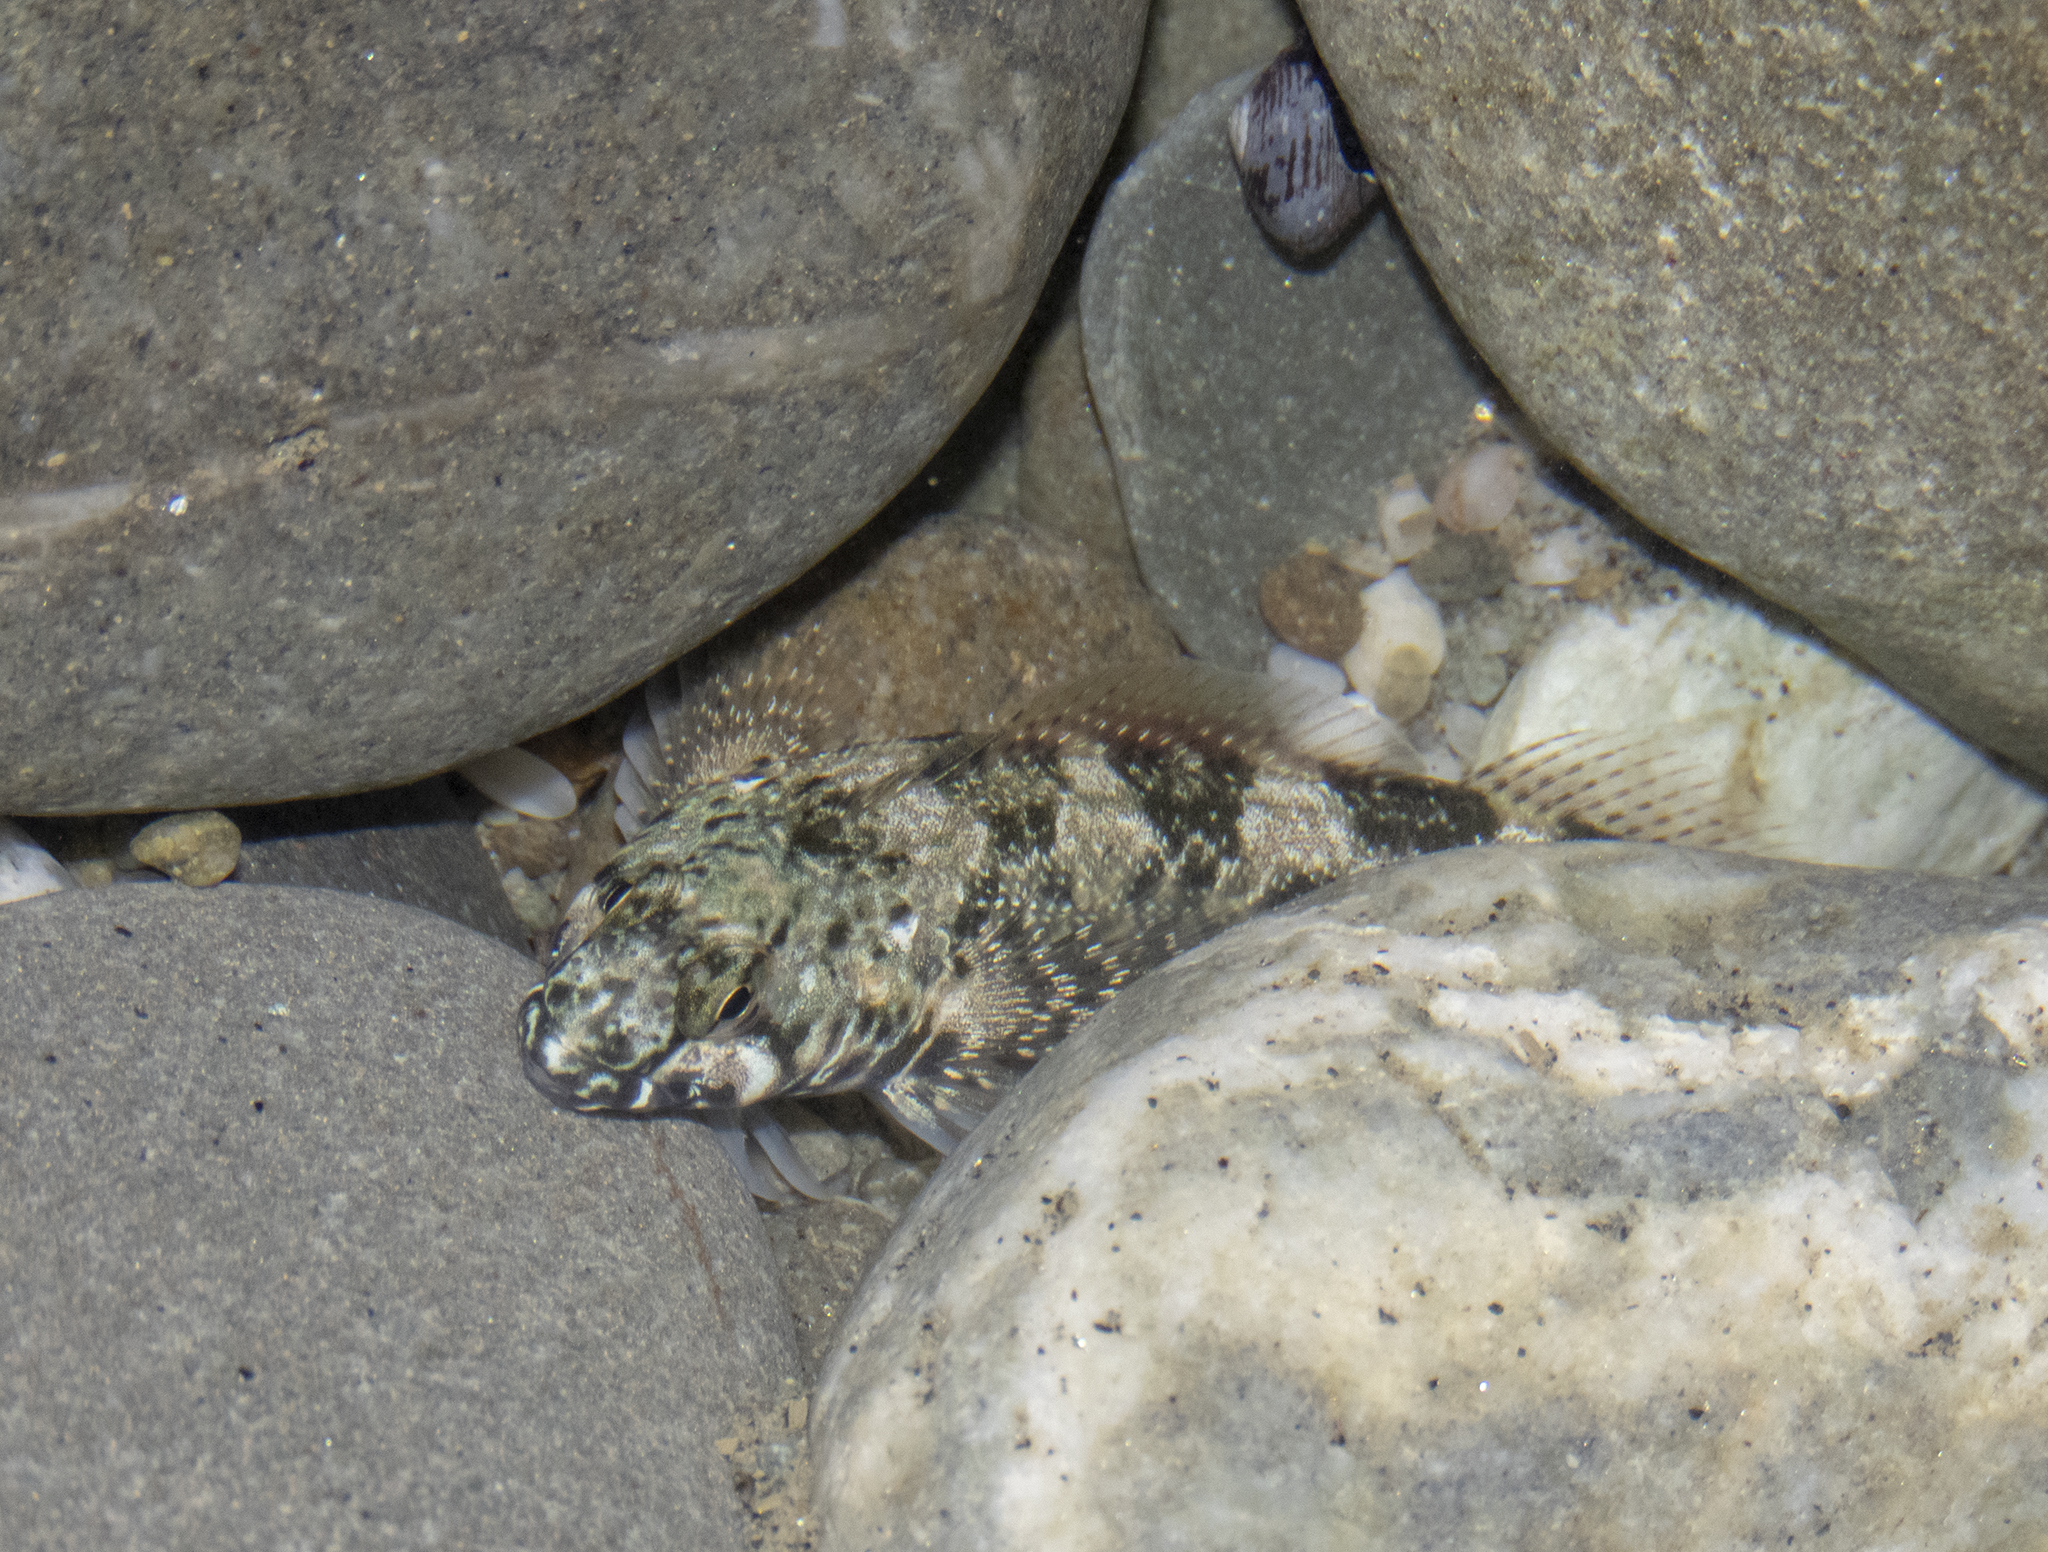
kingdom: Animalia
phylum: Chordata
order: Perciformes
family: Tripterygiidae
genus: Bellapiscis
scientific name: Bellapiscis medius
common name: Twister
